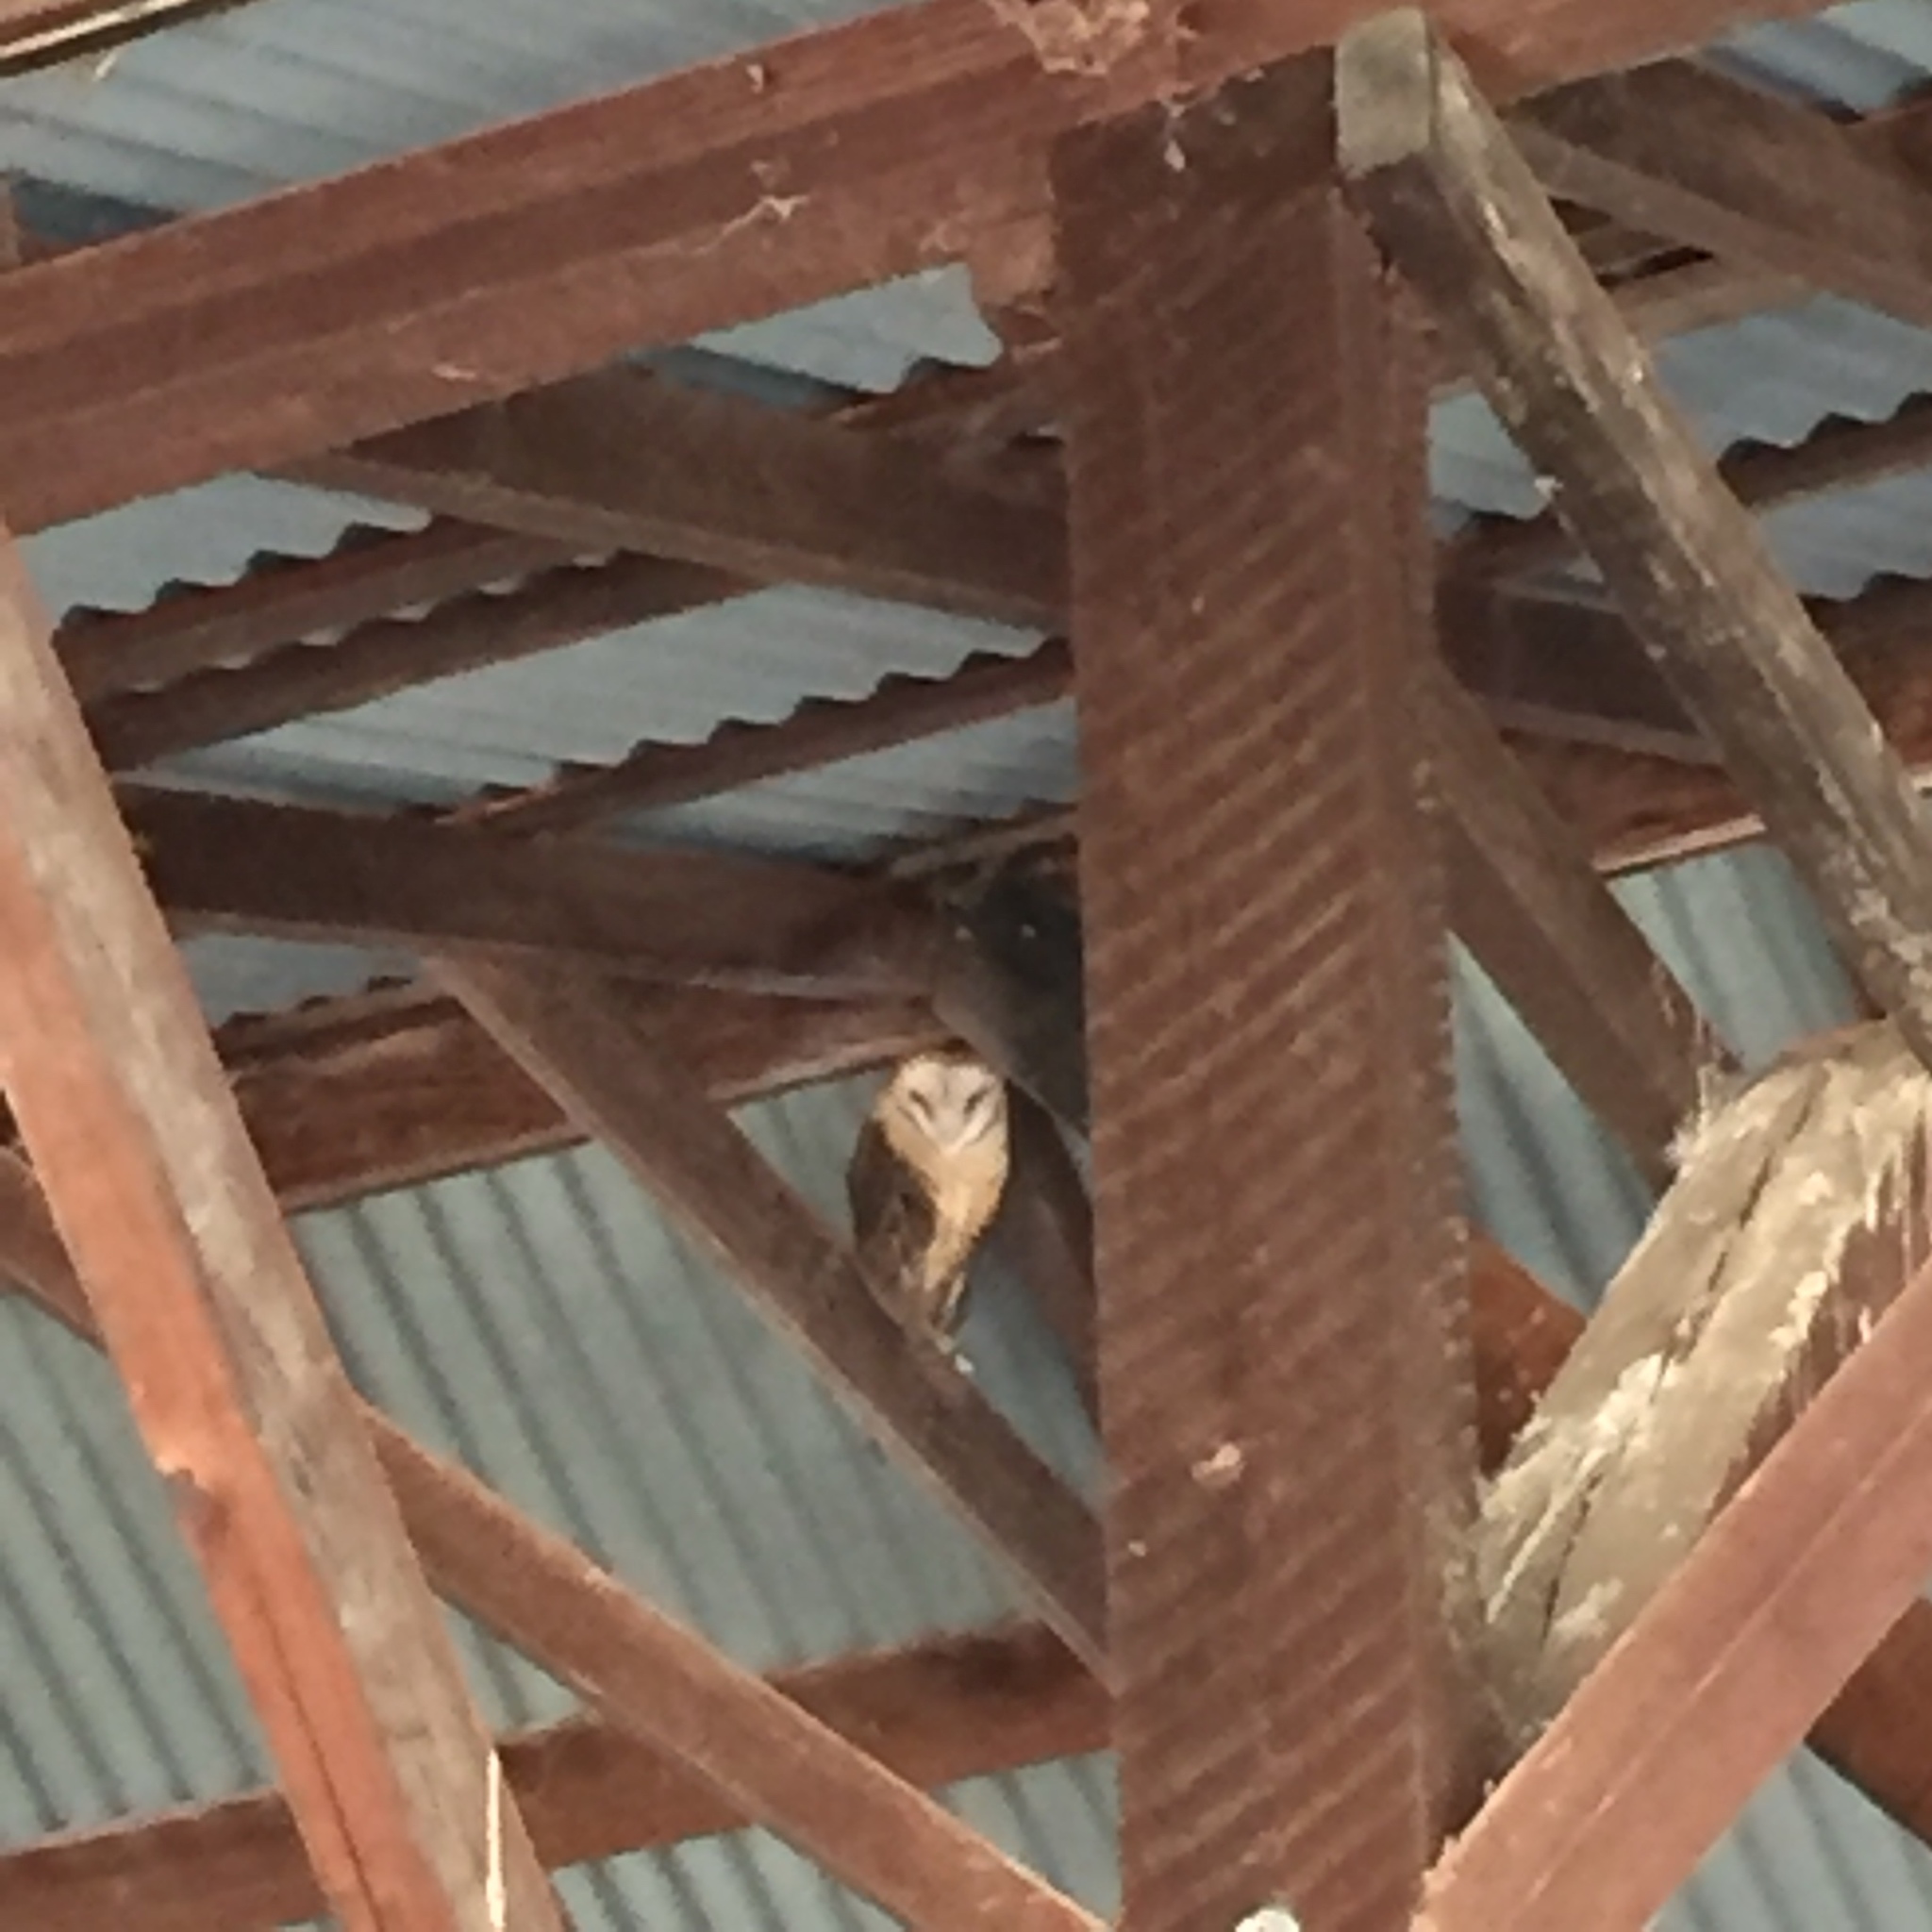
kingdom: Animalia
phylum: Chordata
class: Aves
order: Strigiformes
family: Tytonidae
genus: Tyto
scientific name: Tyto alba
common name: Barn owl
